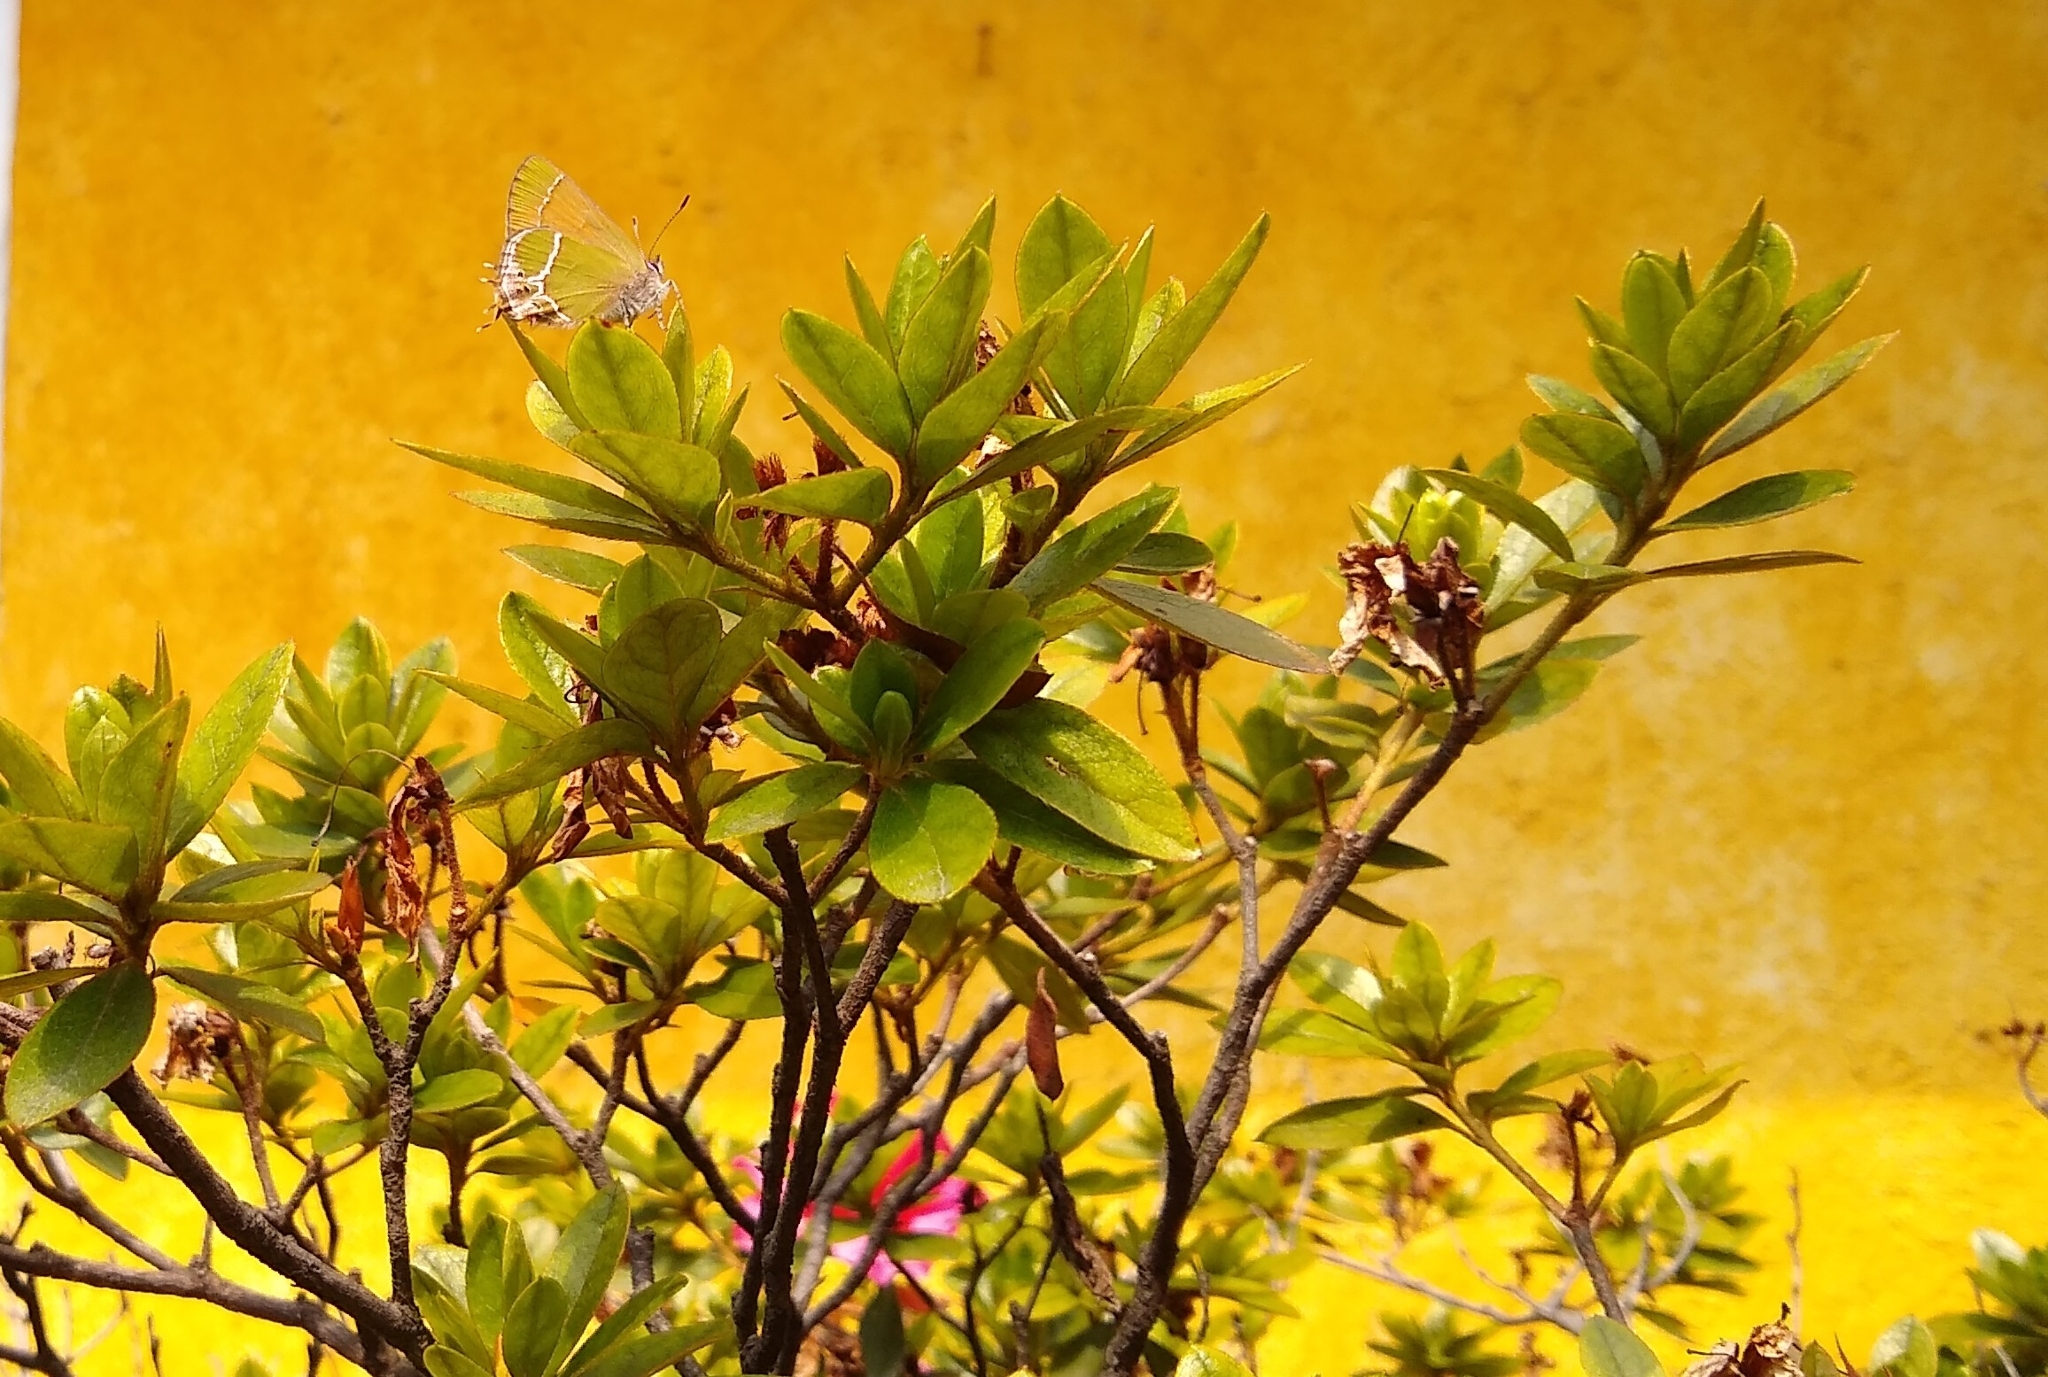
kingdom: Animalia
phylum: Arthropoda
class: Insecta
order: Lepidoptera
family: Lycaenidae
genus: Xamia
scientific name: Xamia xami
